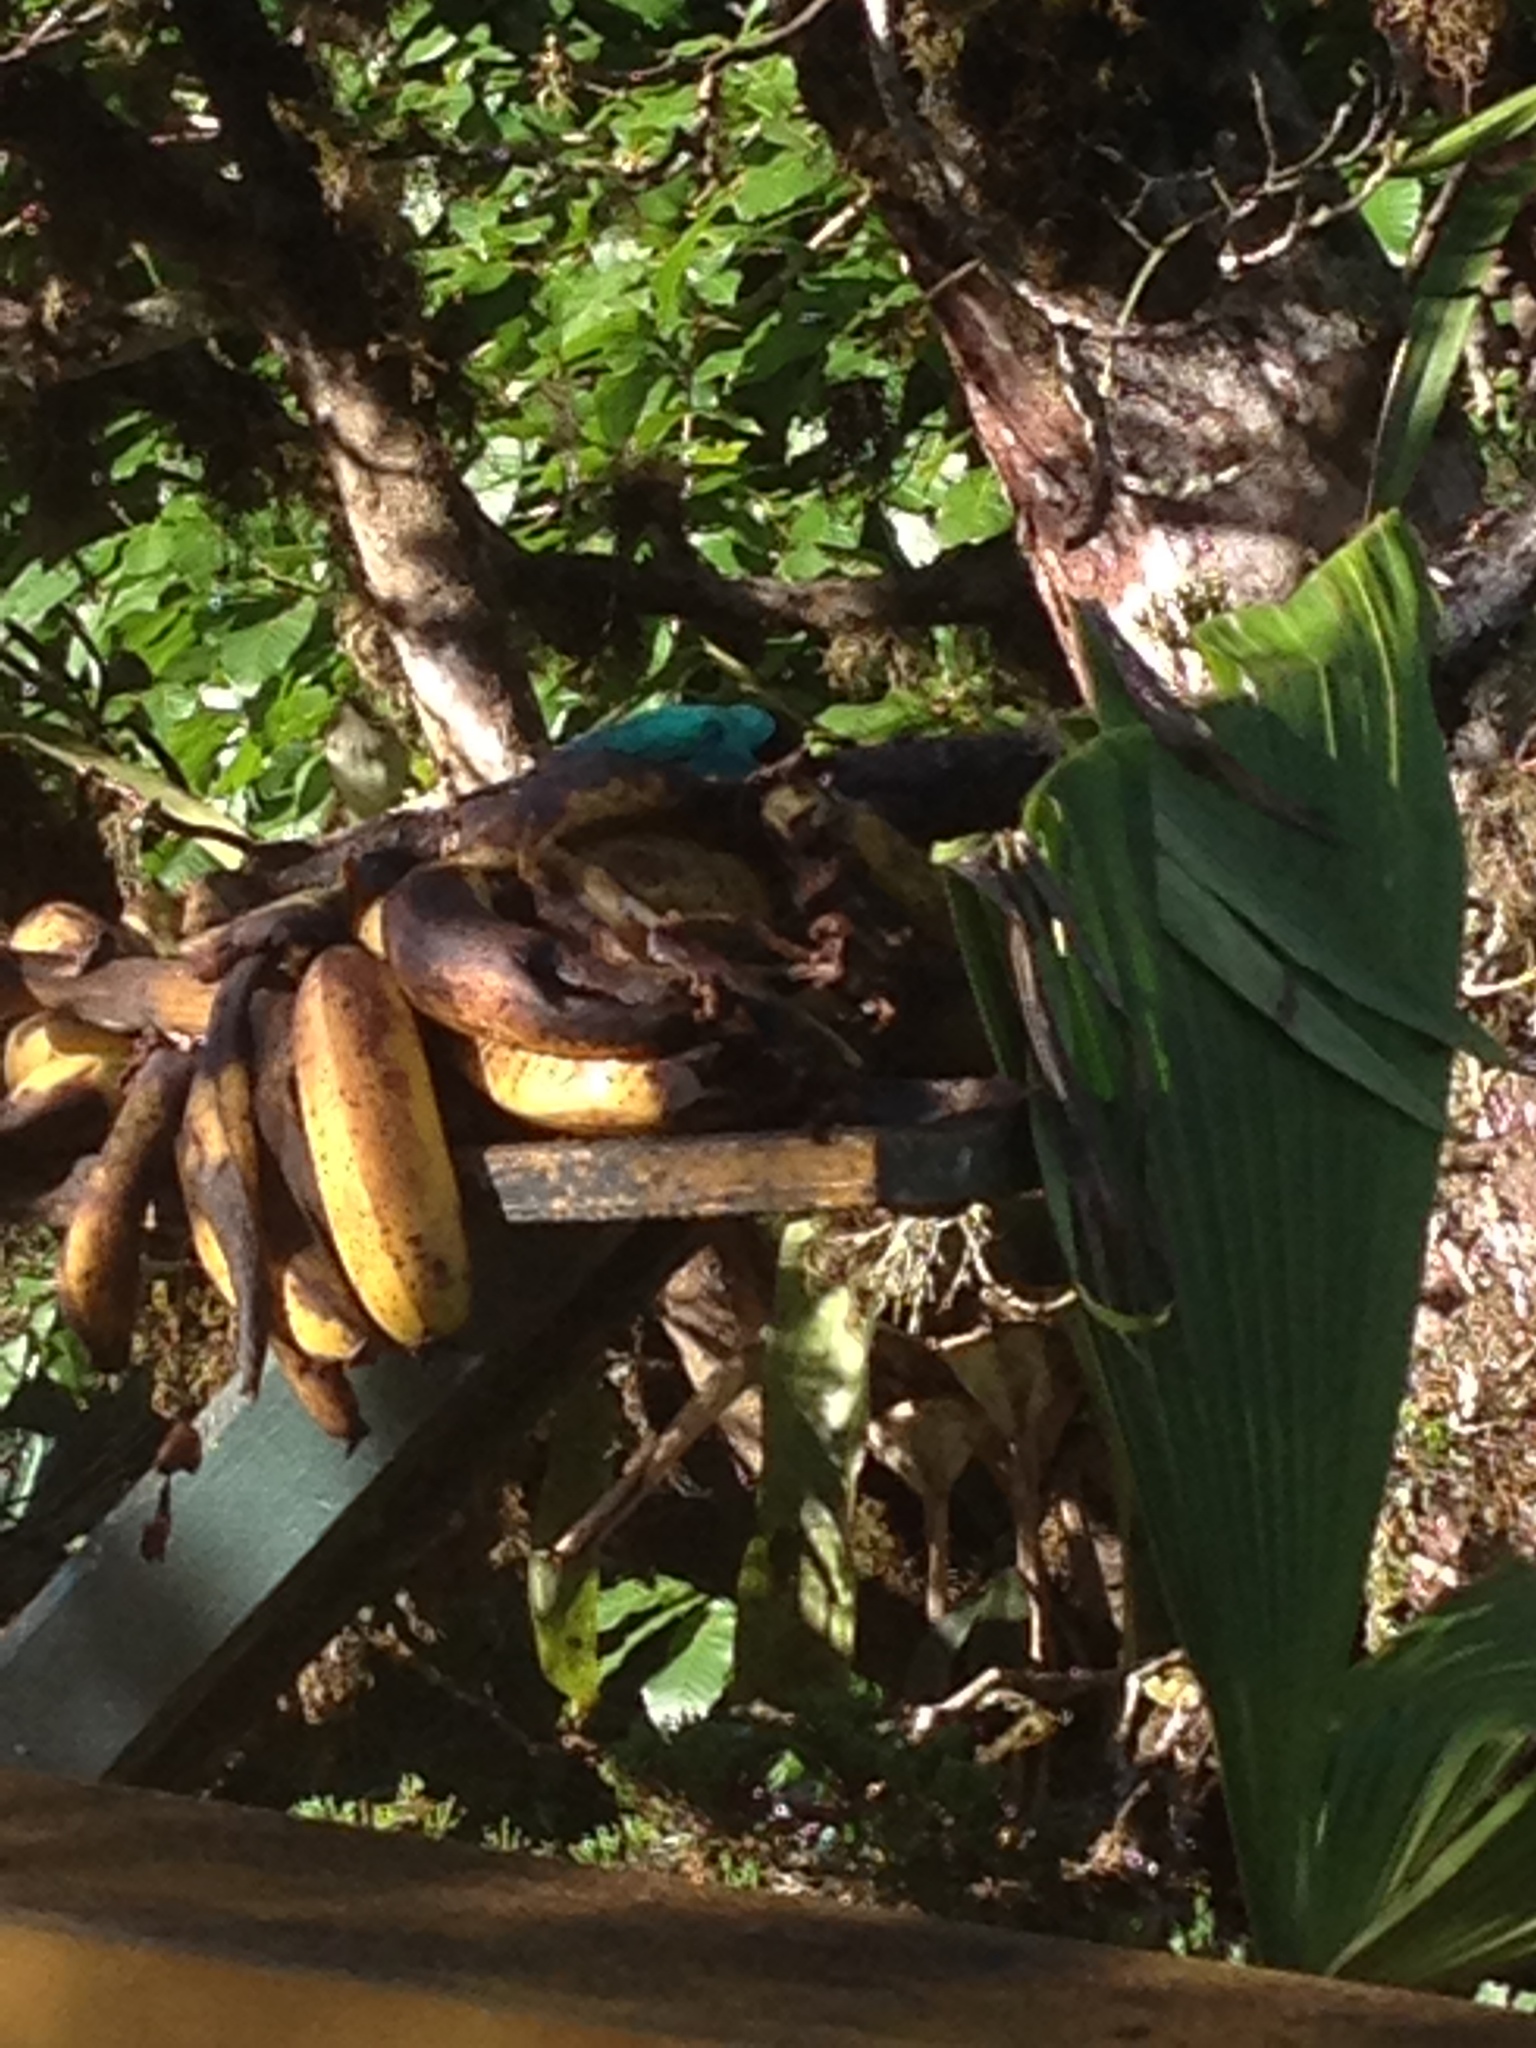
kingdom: Animalia
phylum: Chordata
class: Aves
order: Passeriformes
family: Thraupidae
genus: Chlorophanes
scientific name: Chlorophanes spiza
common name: Green honeycreeper
